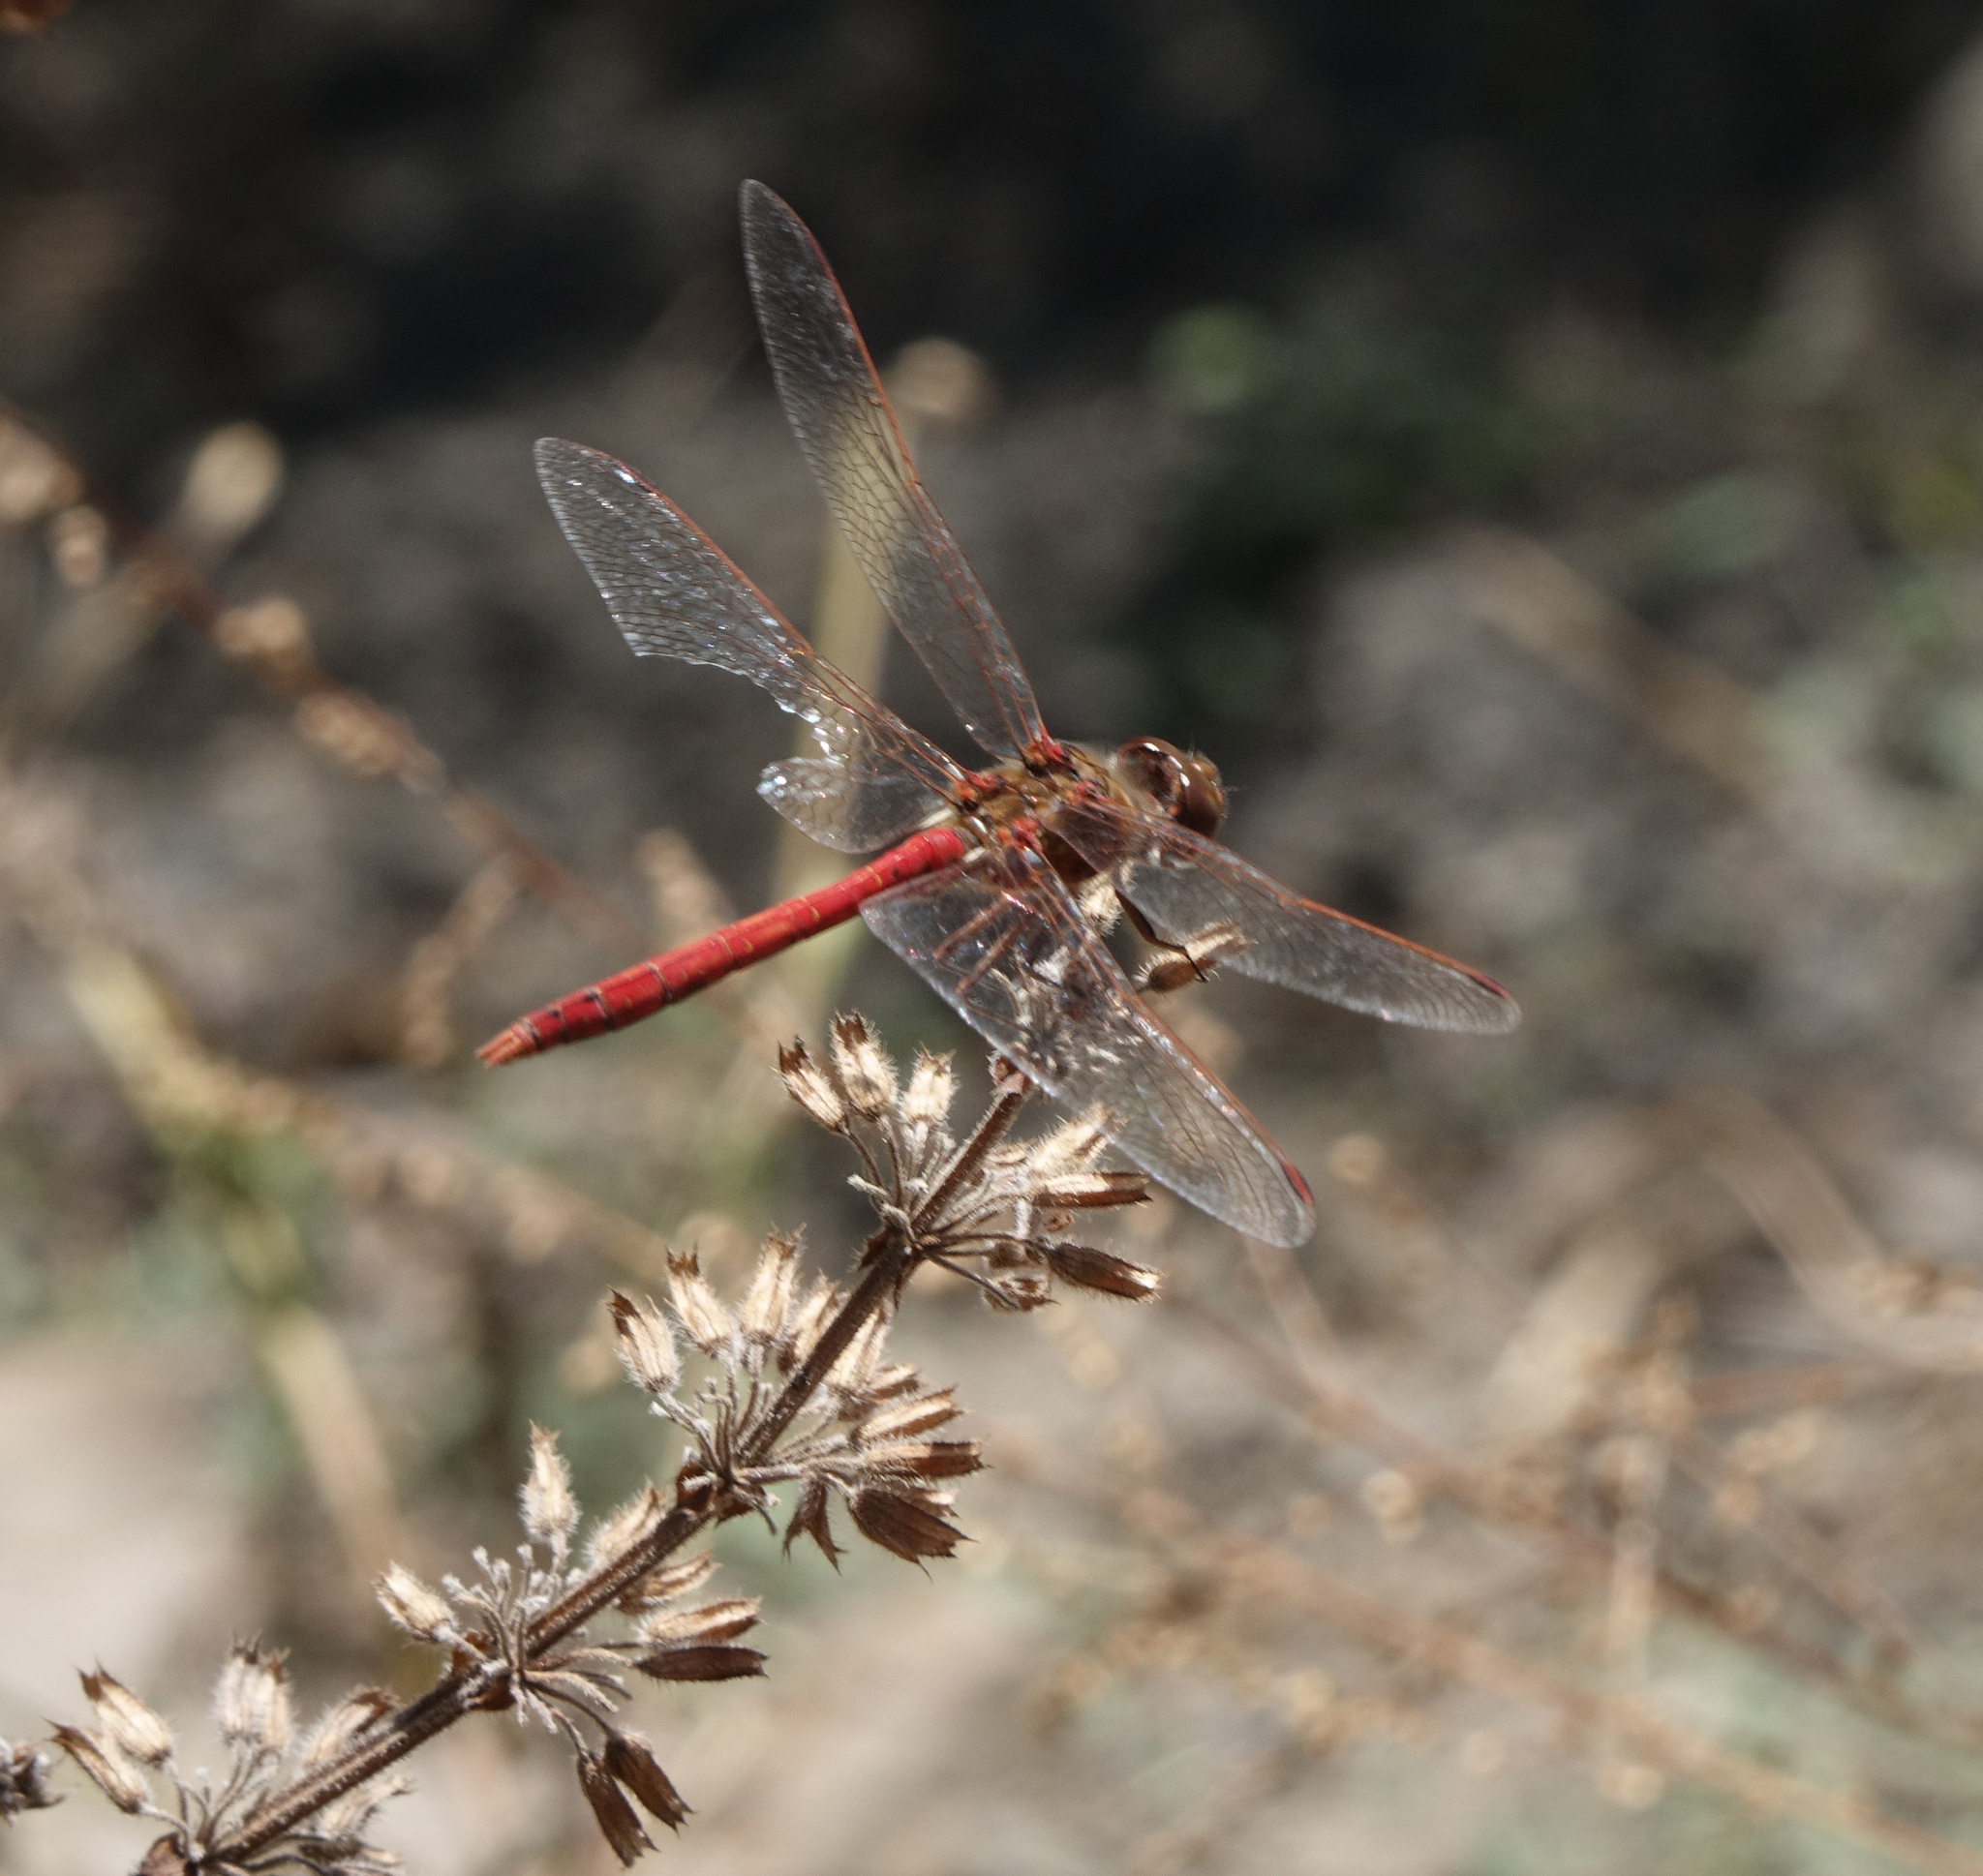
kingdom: Animalia
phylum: Arthropoda
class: Insecta
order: Odonata
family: Libellulidae
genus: Sympetrum
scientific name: Sympetrum vulgatum
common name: Vagrant darter
